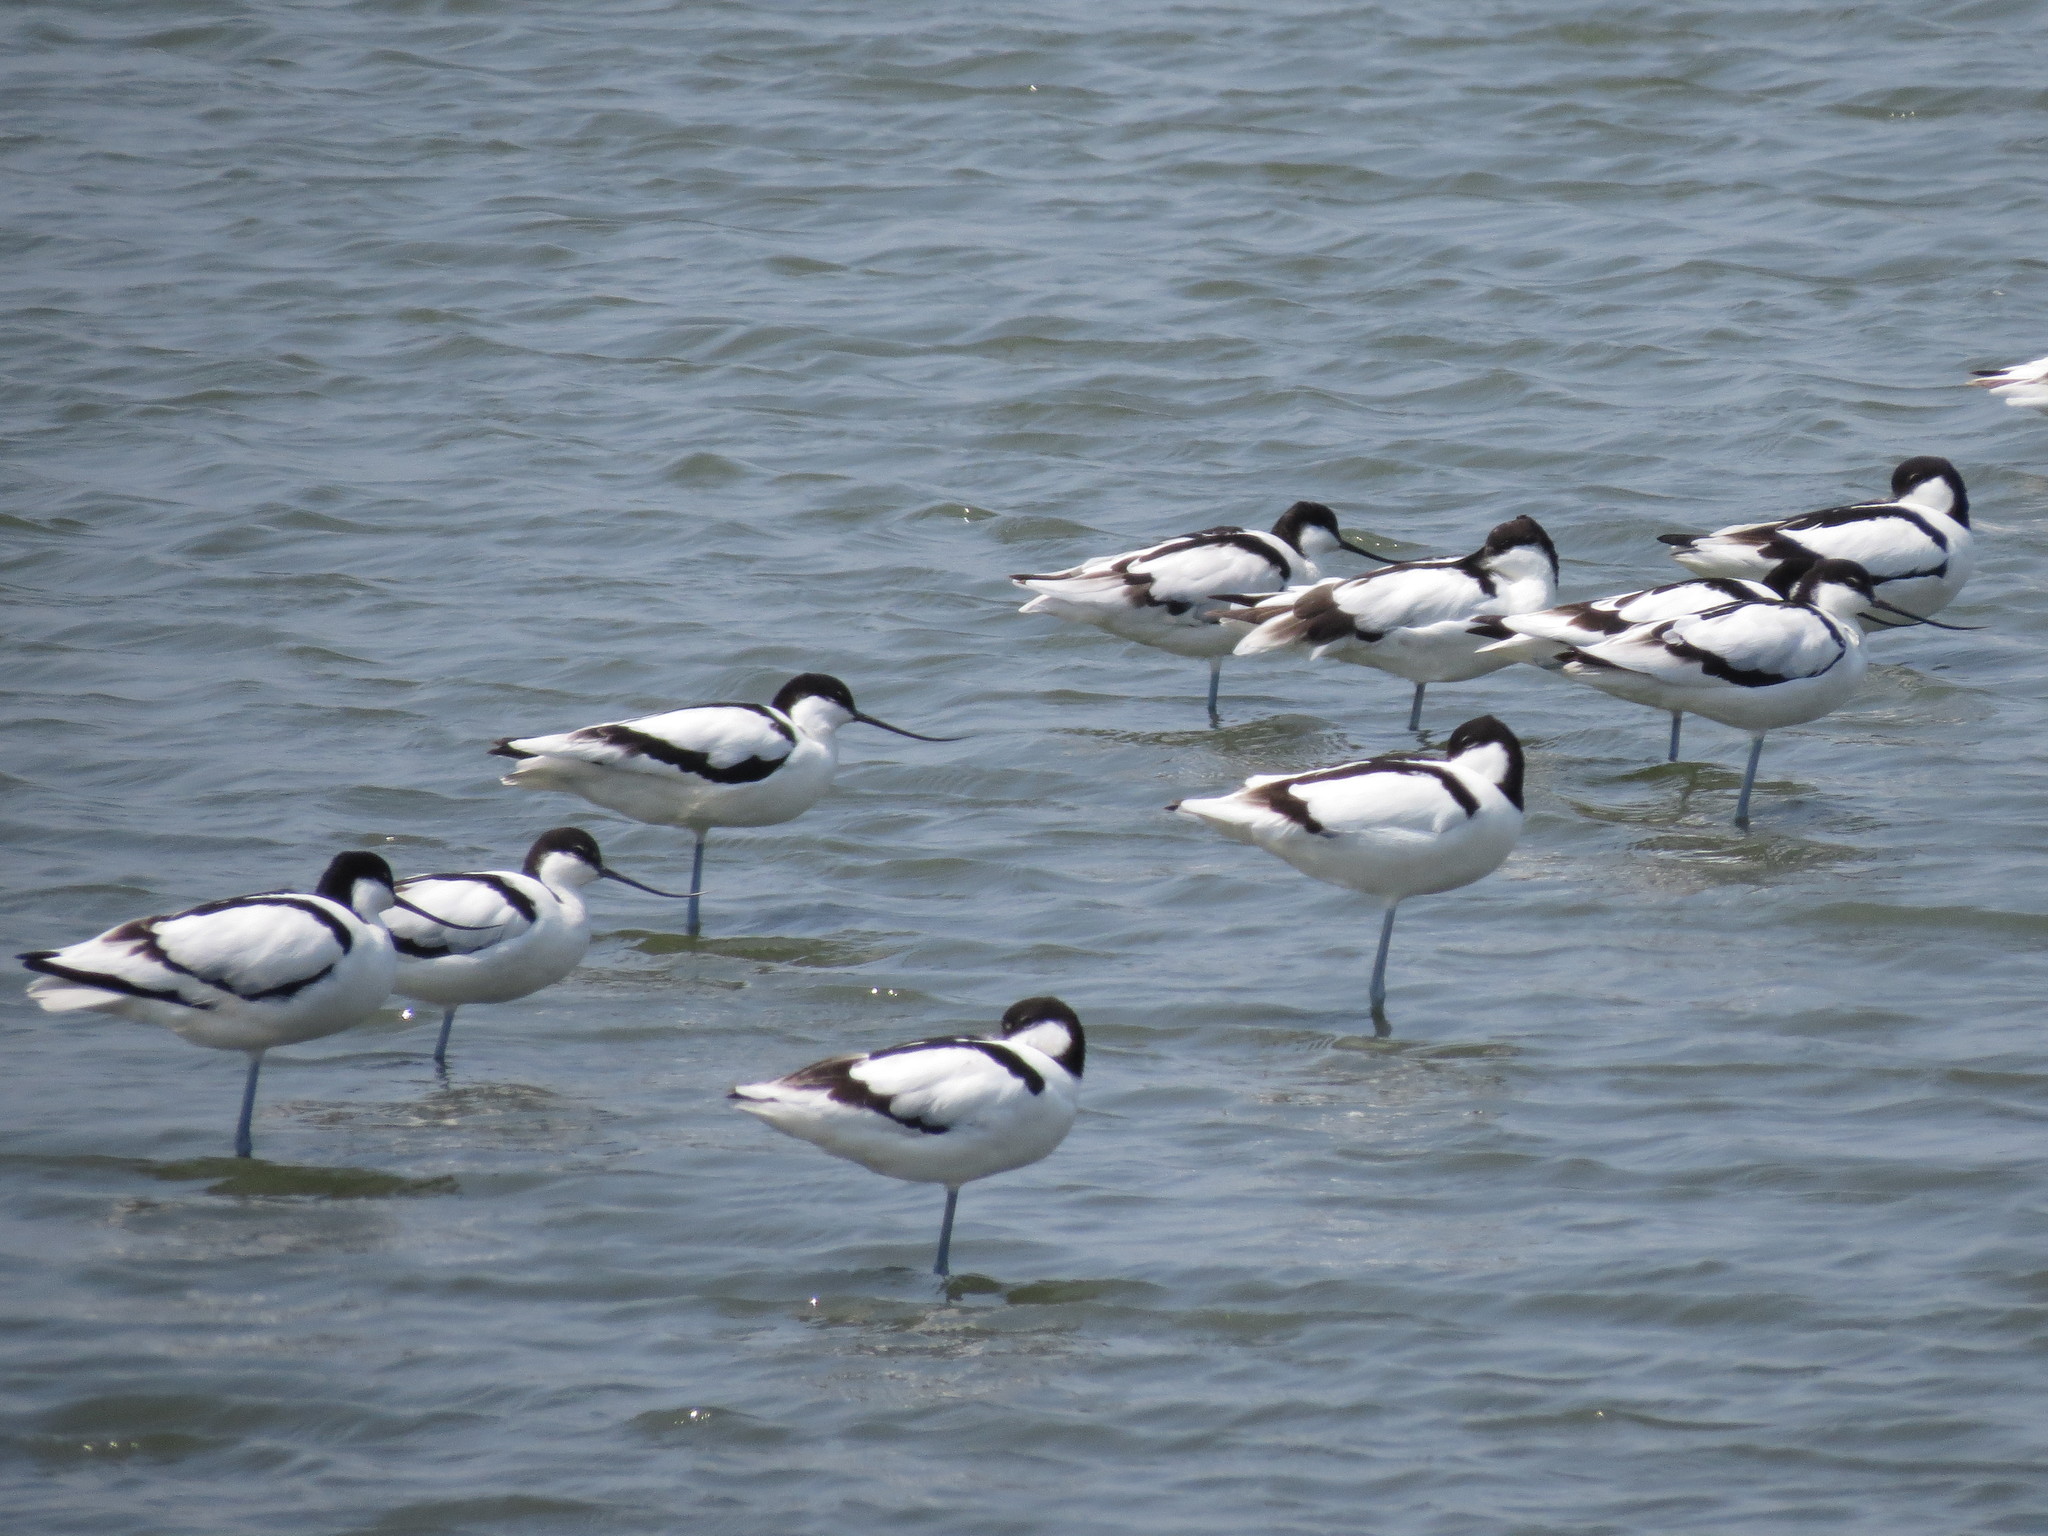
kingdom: Animalia
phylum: Chordata
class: Aves
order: Charadriiformes
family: Recurvirostridae
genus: Recurvirostra
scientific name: Recurvirostra avosetta
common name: Pied avocet
